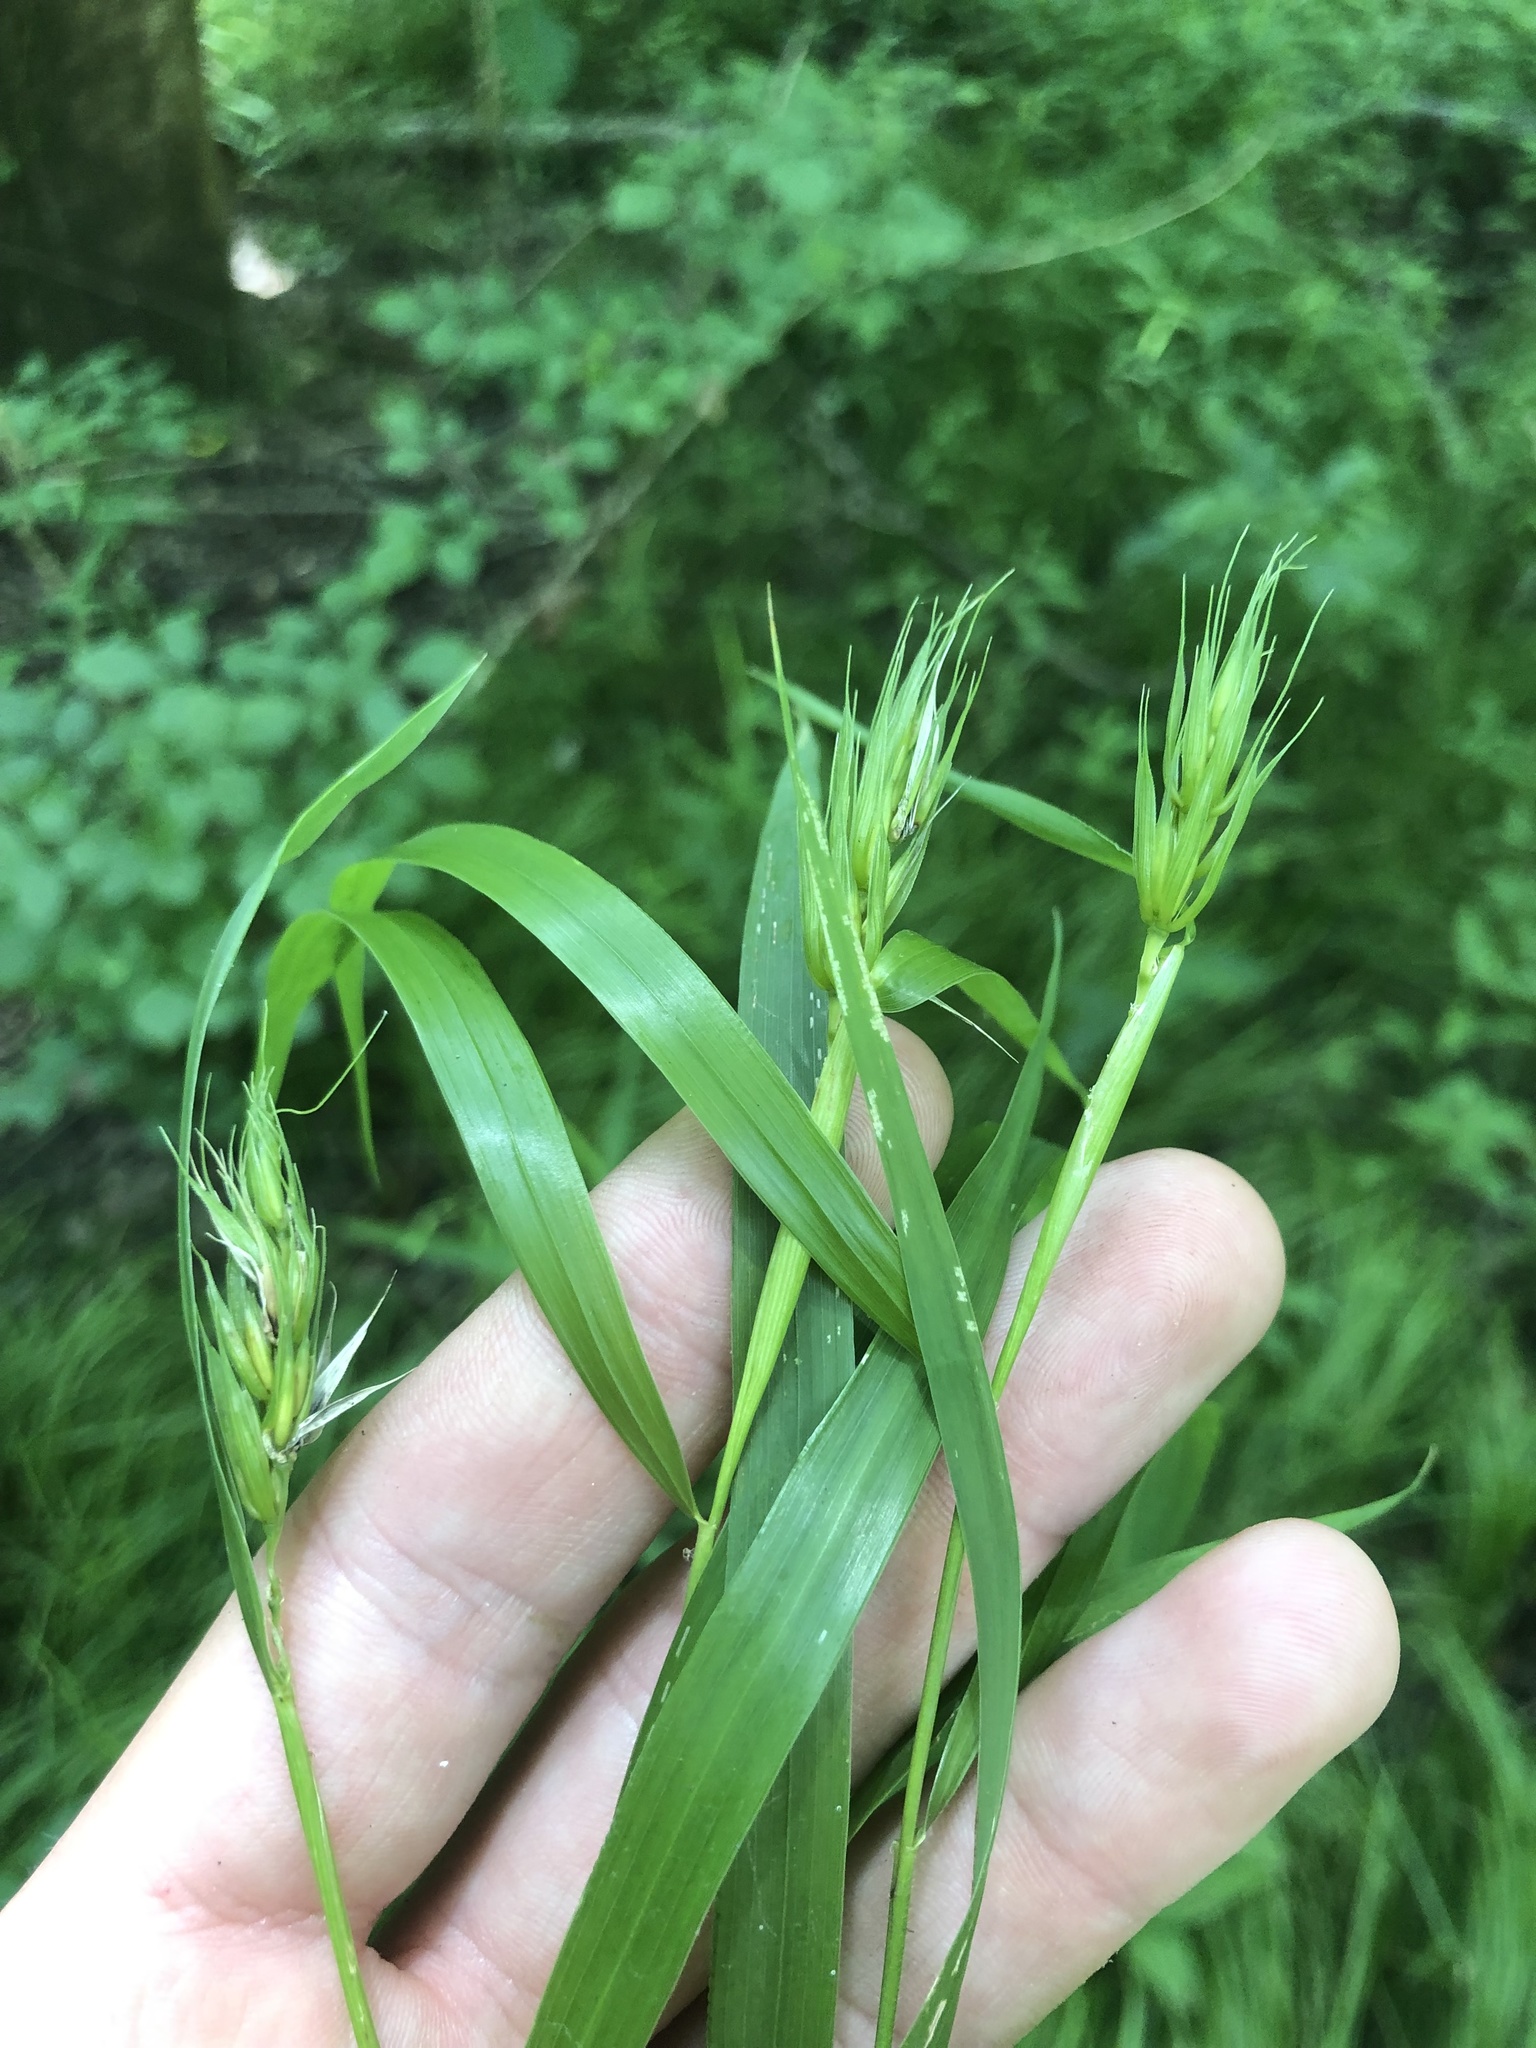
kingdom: Plantae
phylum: Tracheophyta
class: Liliopsida
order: Poales
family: Poaceae
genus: Elymus
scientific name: Elymus virginicus
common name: Common eastern wildrye
